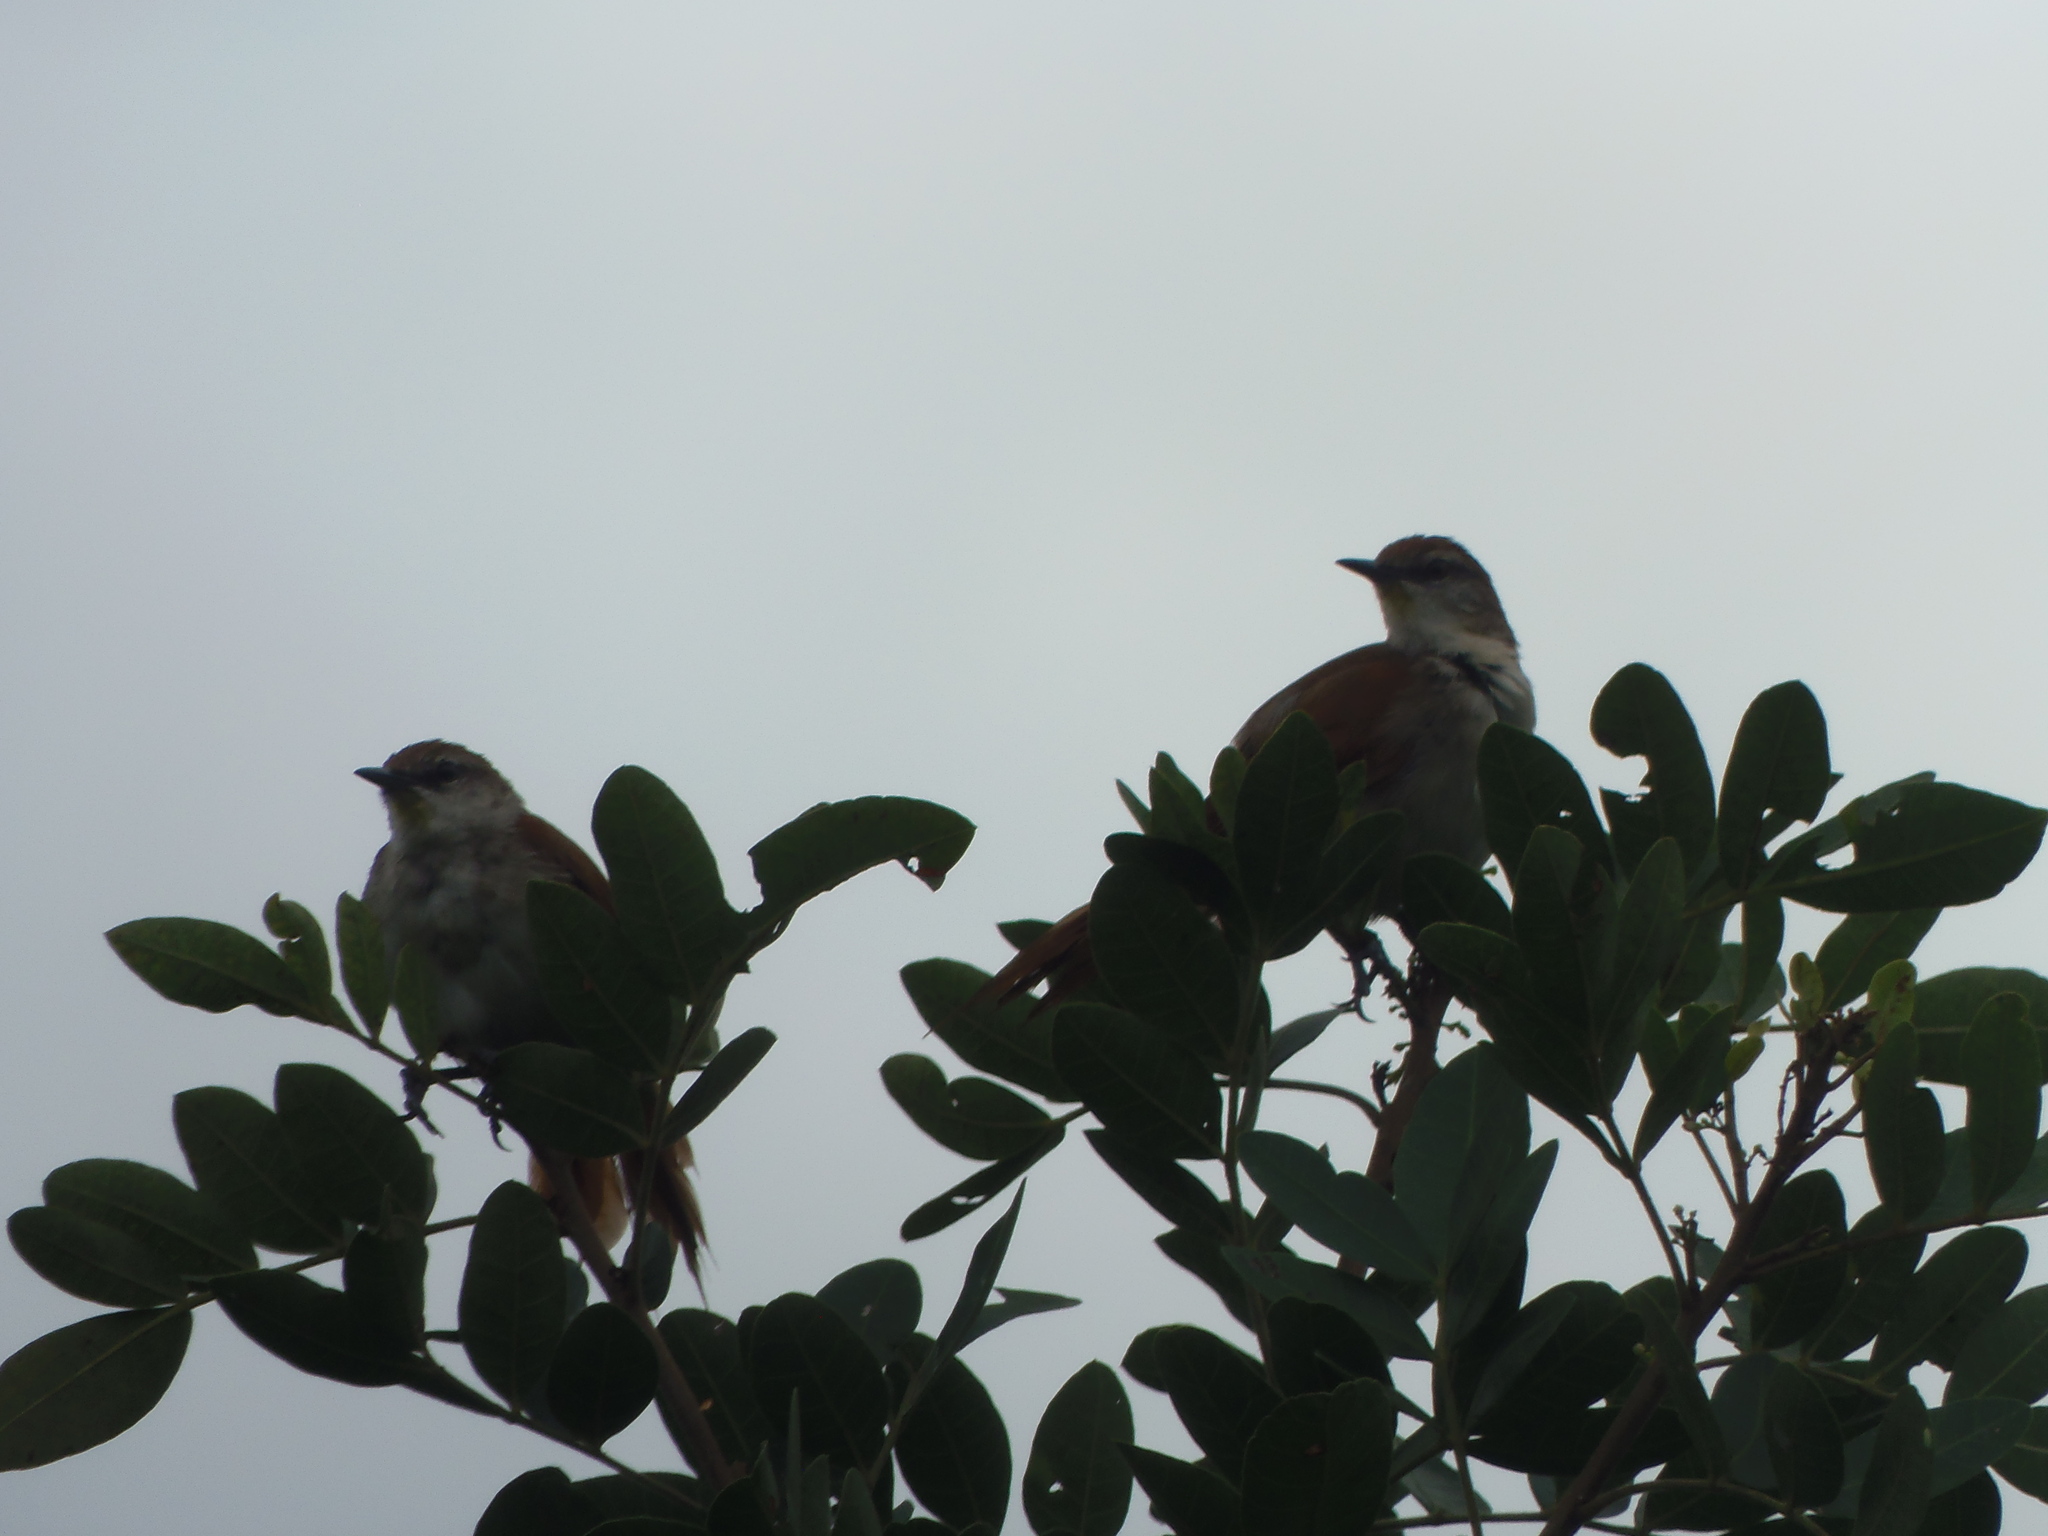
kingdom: Animalia
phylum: Chordata
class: Aves
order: Passeriformes
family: Furnariidae
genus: Certhiaxis
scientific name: Certhiaxis cinnamomeus
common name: Yellow-chinned spinetail
